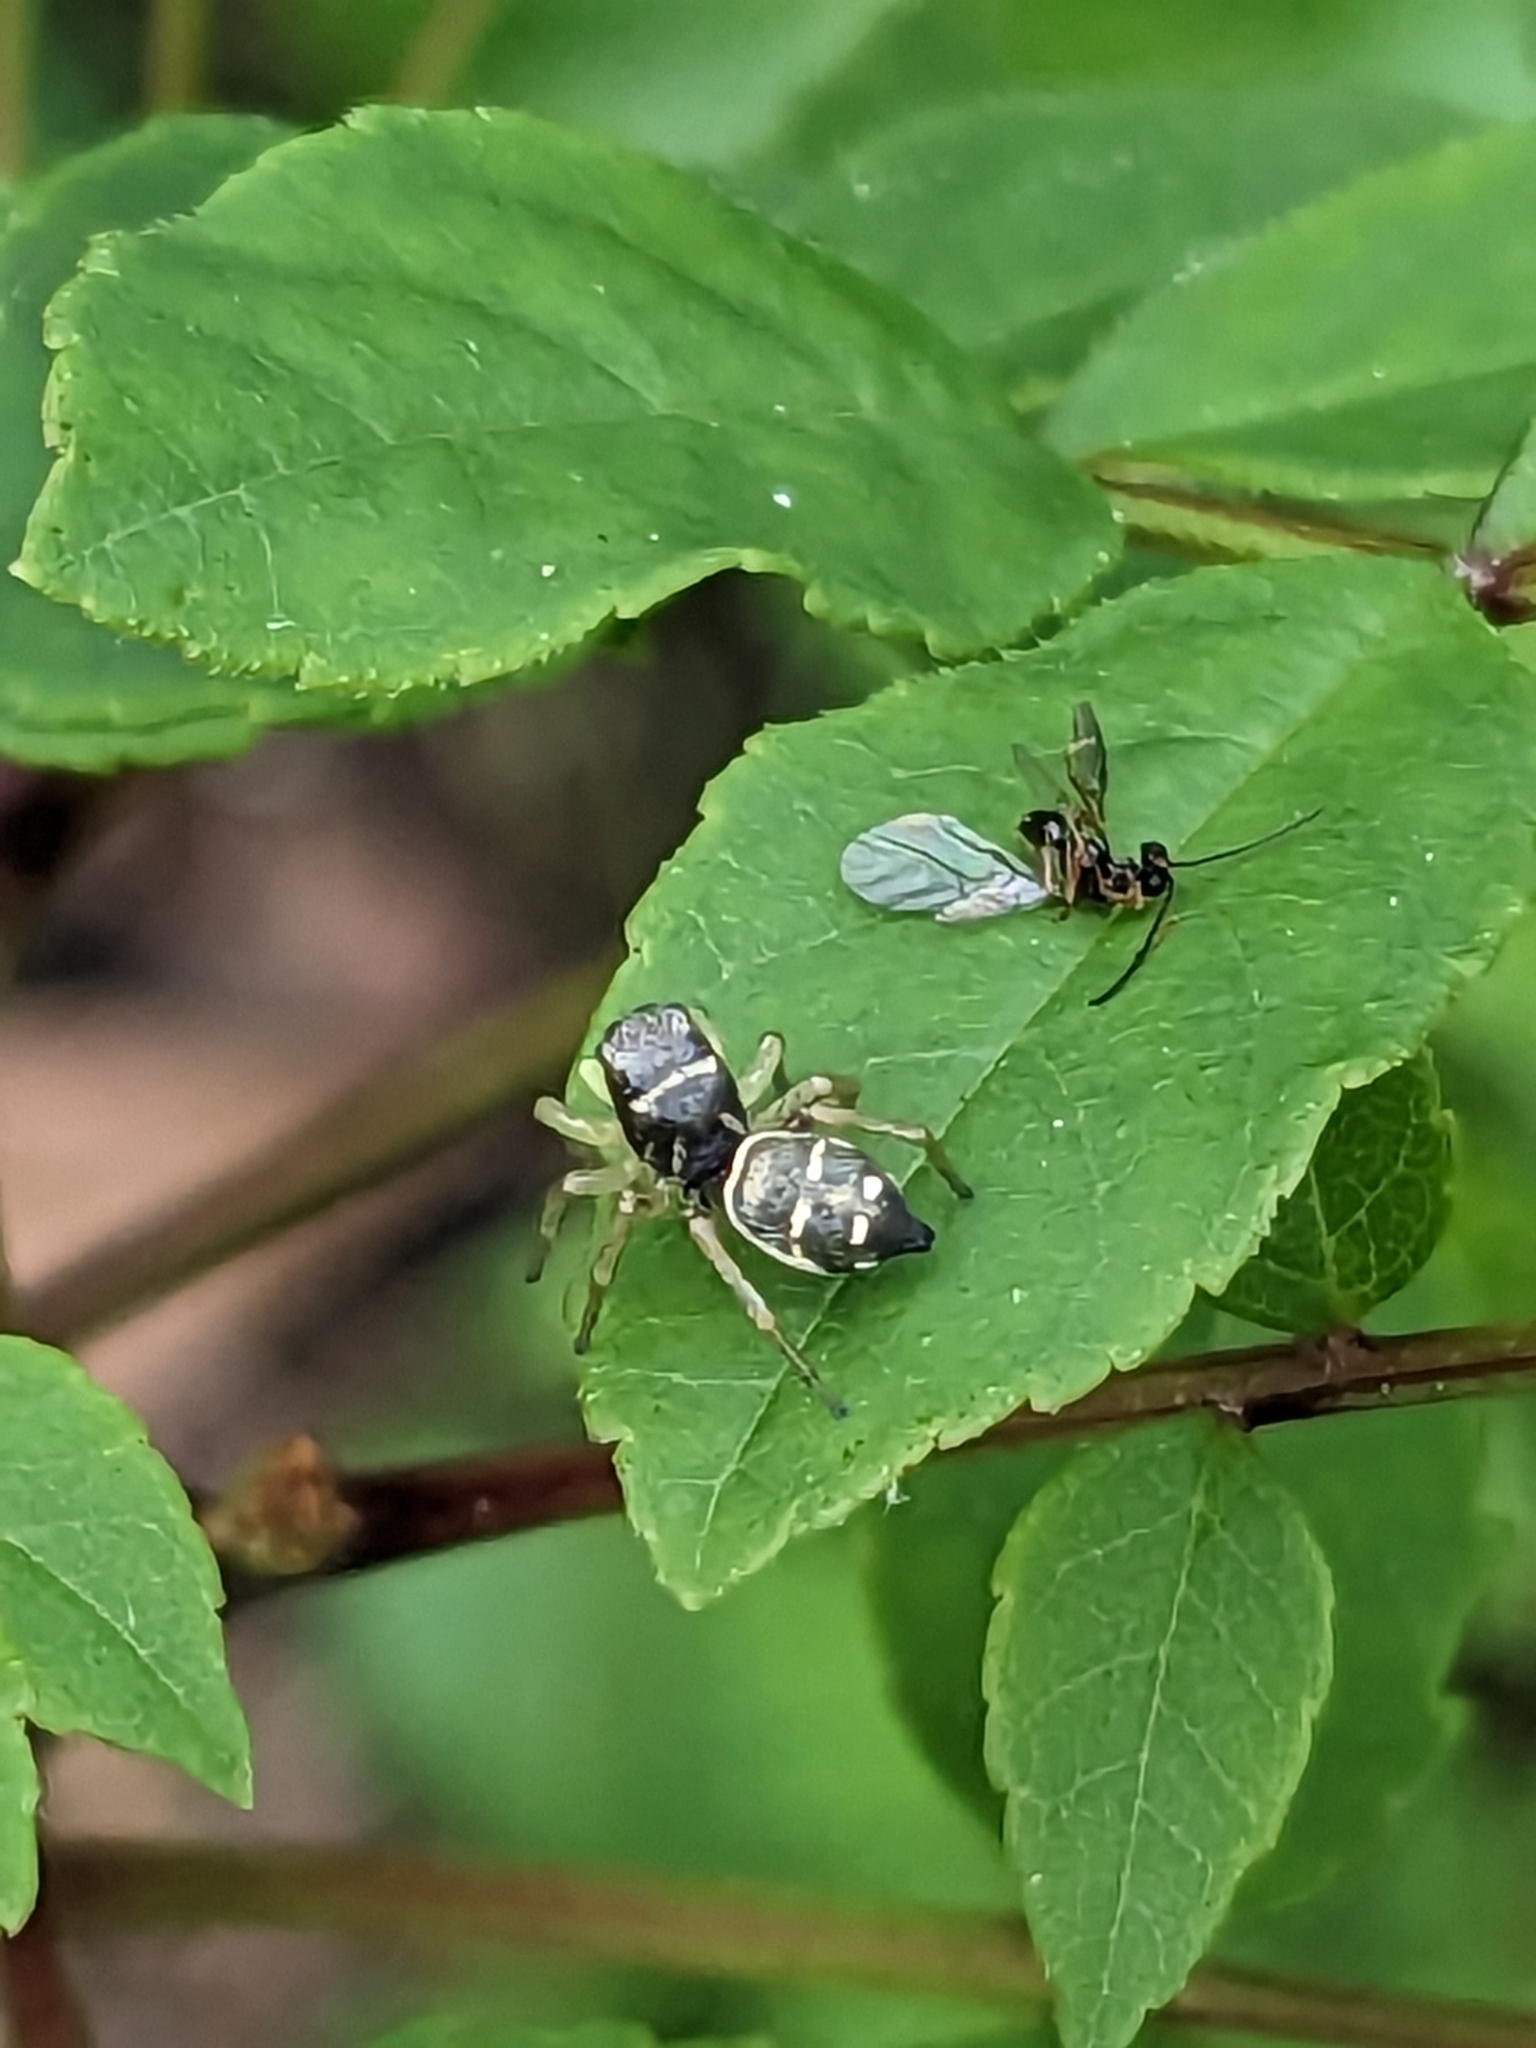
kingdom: Animalia
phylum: Arthropoda
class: Arachnida
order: Araneae
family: Salticidae
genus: Heliophanus
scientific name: Heliophanus cupreus
